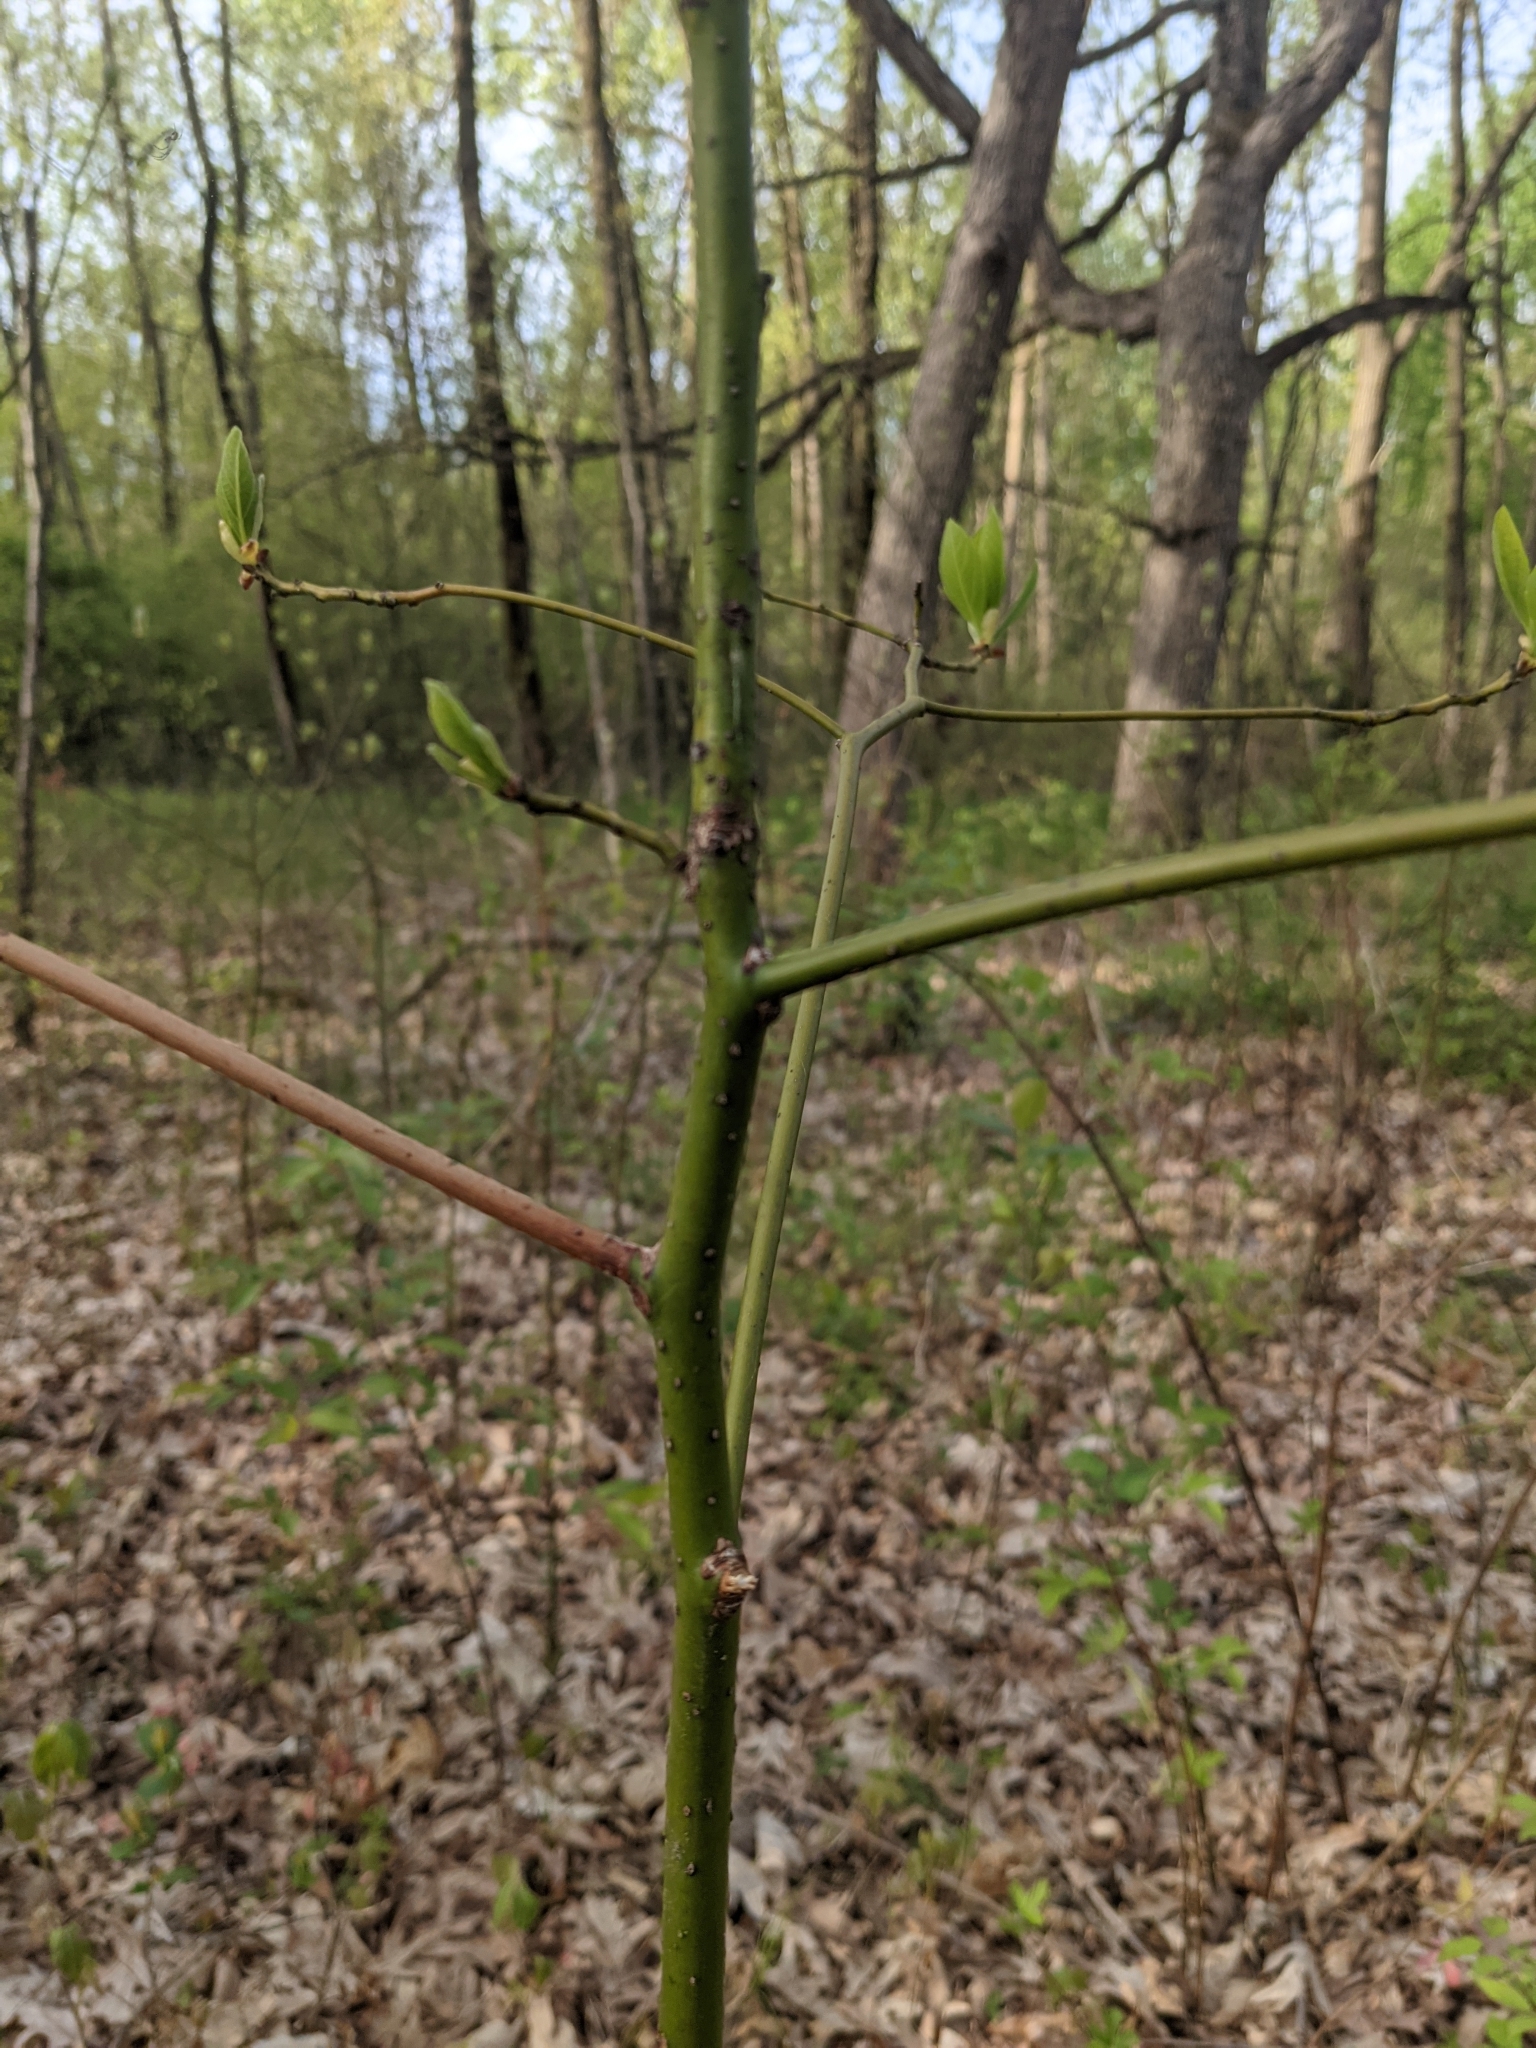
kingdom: Plantae
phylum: Tracheophyta
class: Magnoliopsida
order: Laurales
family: Lauraceae
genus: Sassafras
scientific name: Sassafras albidum
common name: Sassafras
